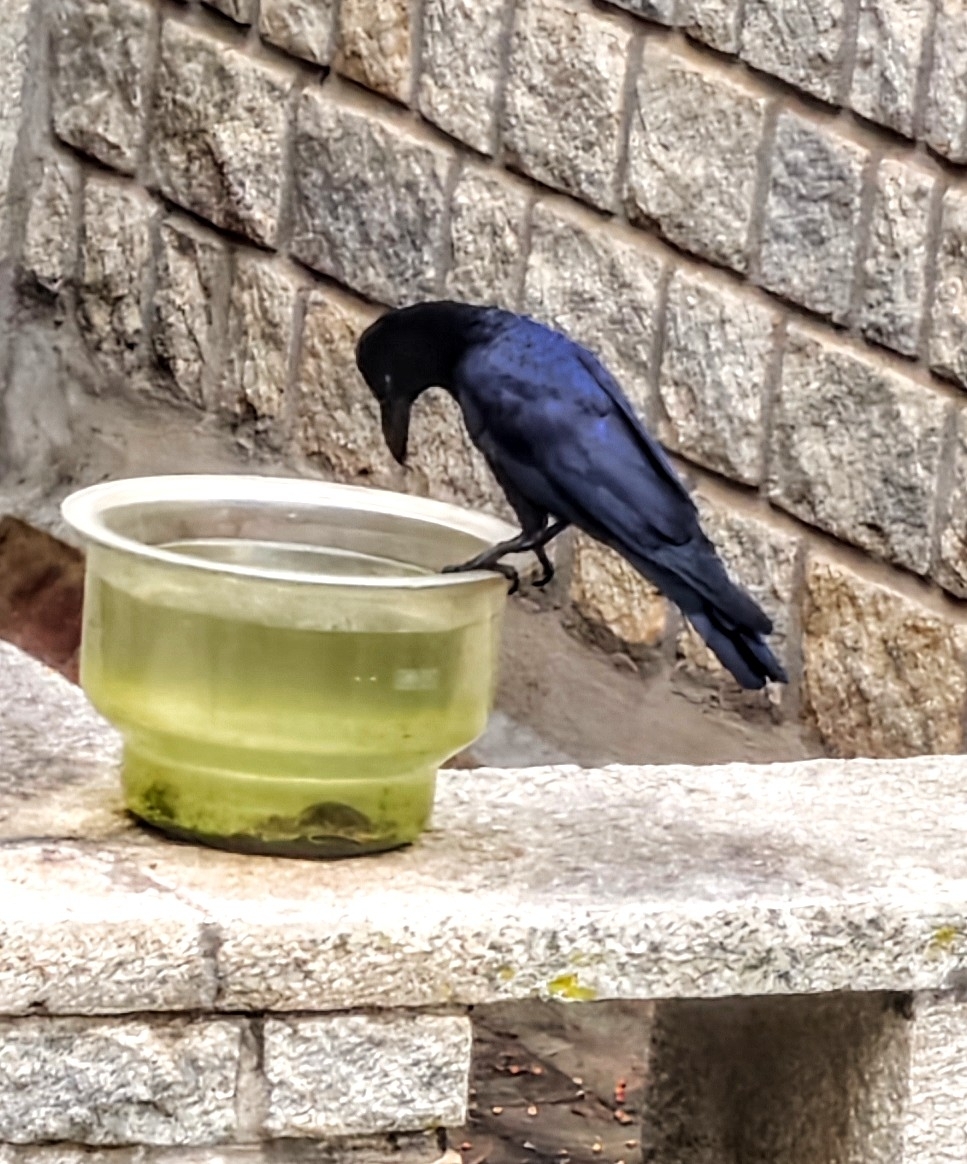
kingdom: Animalia
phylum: Chordata
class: Aves
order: Passeriformes
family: Corvidae
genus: Corvus
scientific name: Corvus macrorhynchos
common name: Large-billed crow
